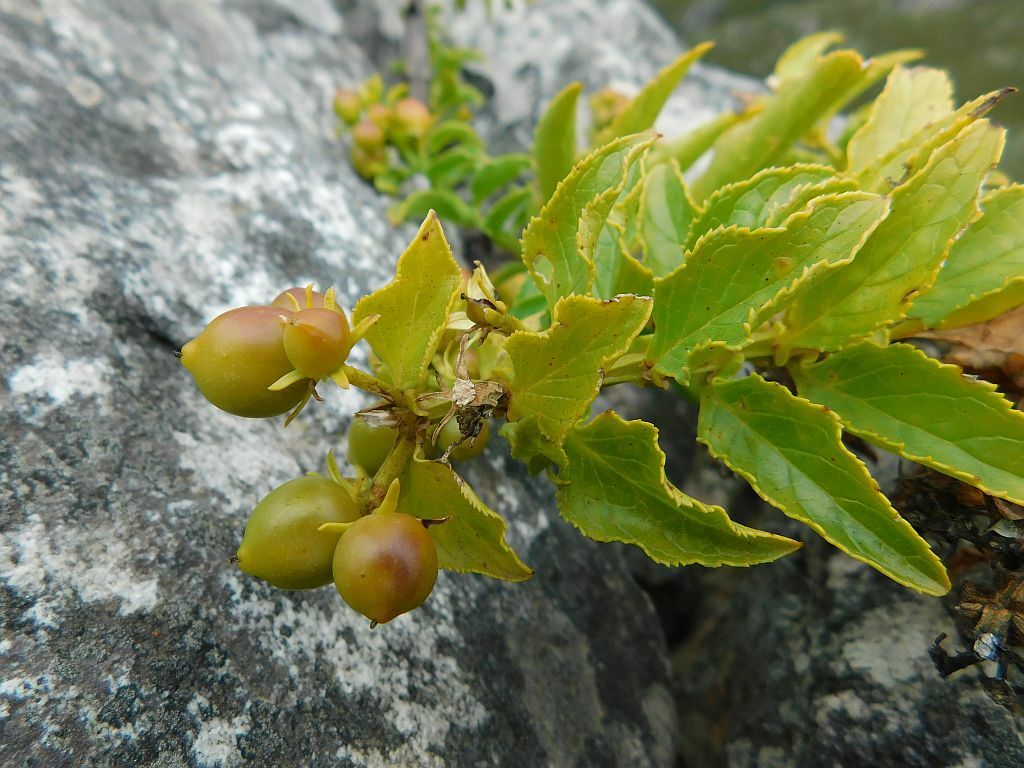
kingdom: Plantae
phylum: Tracheophyta
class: Magnoliopsida
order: Lamiales
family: Scrophulariaceae
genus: Teedia
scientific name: Teedia lucida
